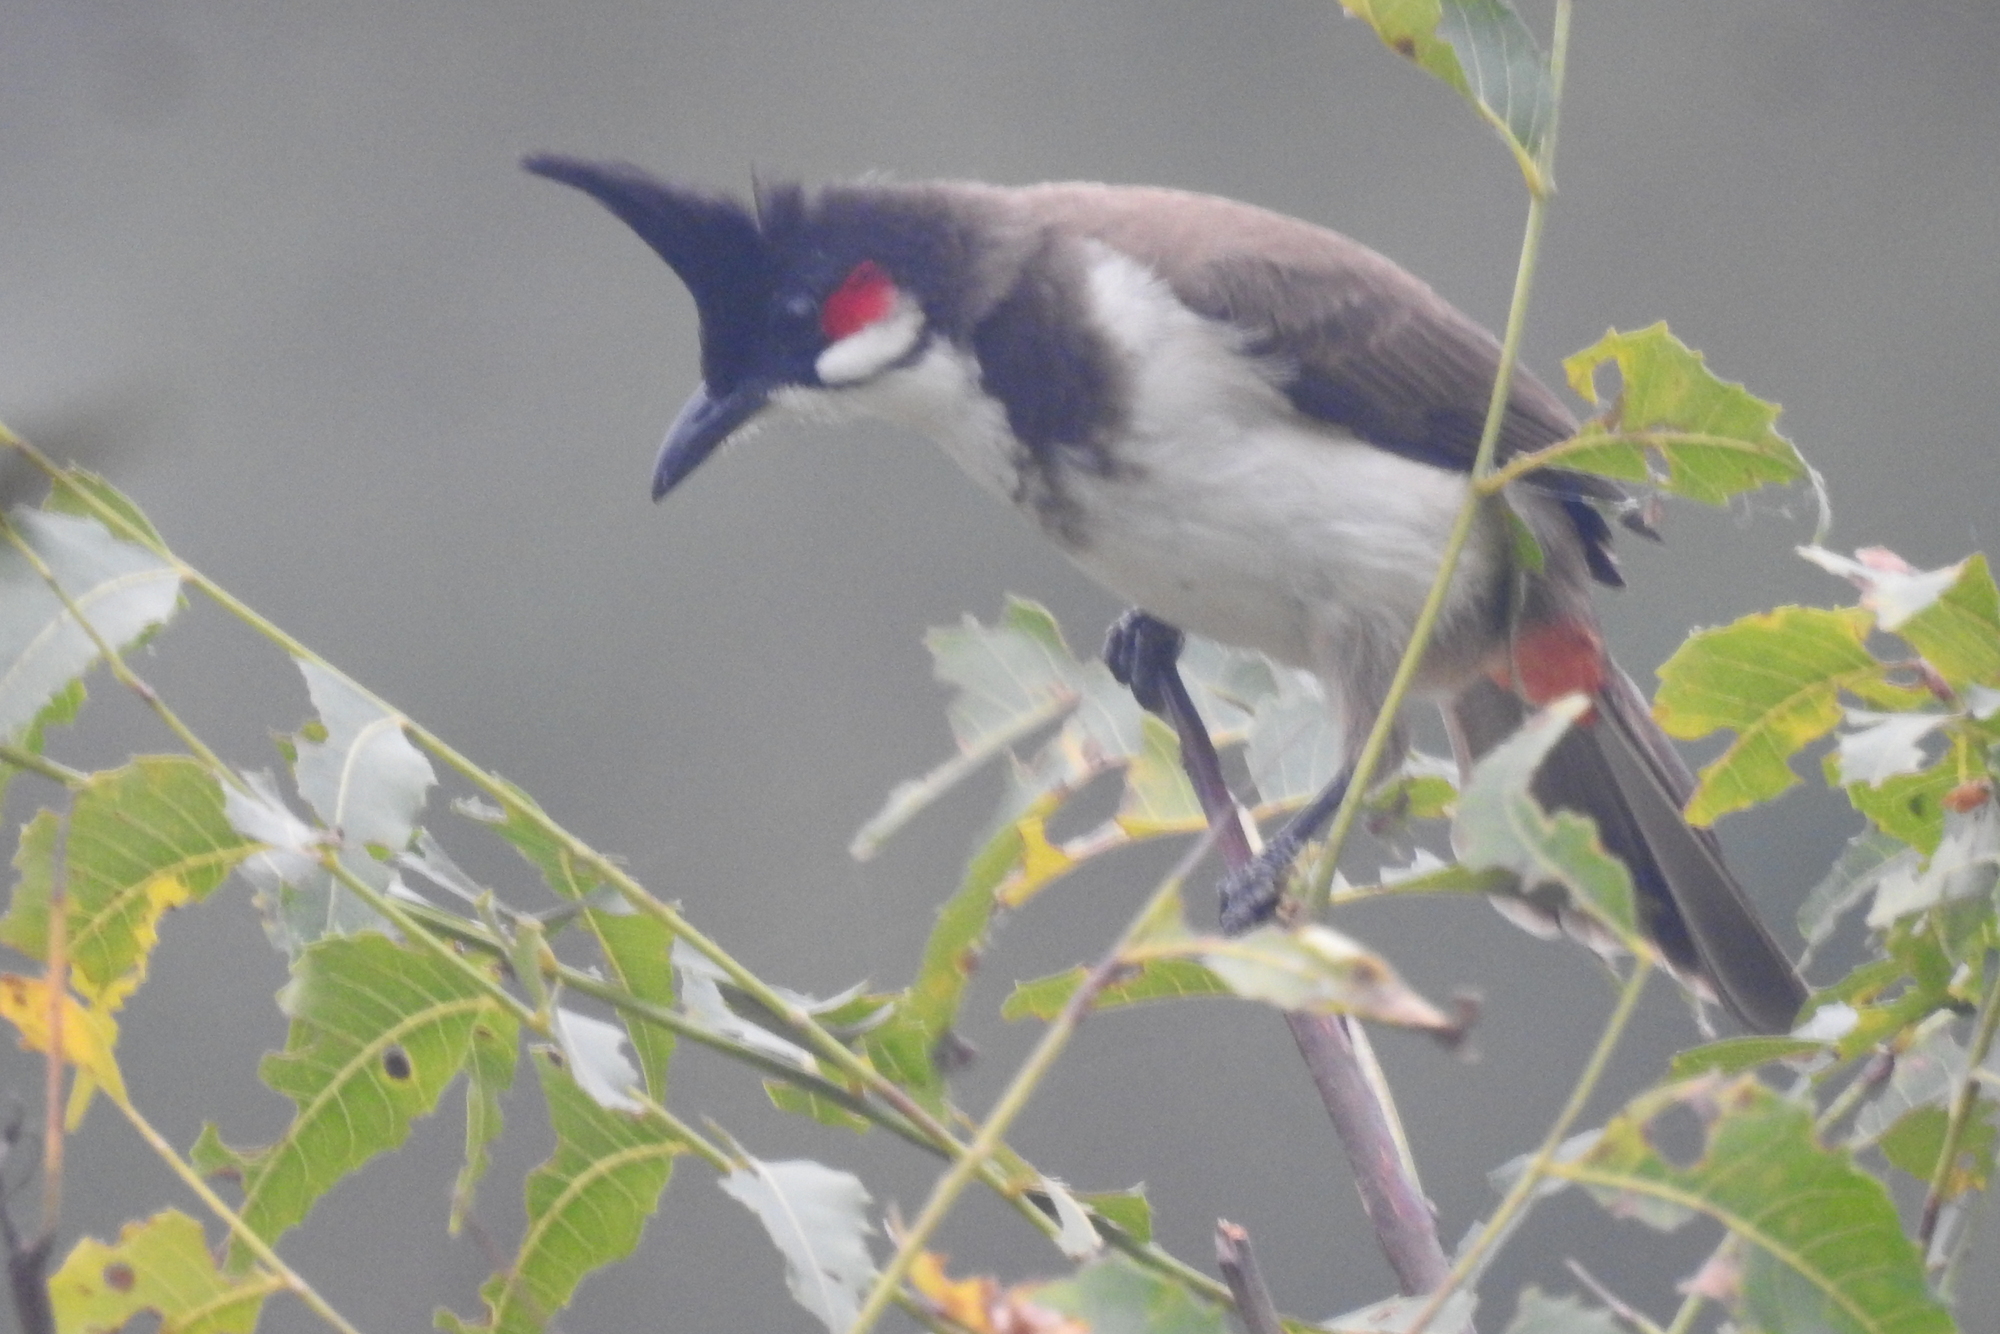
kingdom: Animalia
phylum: Chordata
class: Aves
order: Passeriformes
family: Pycnonotidae
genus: Pycnonotus
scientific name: Pycnonotus jocosus
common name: Red-whiskered bulbul
